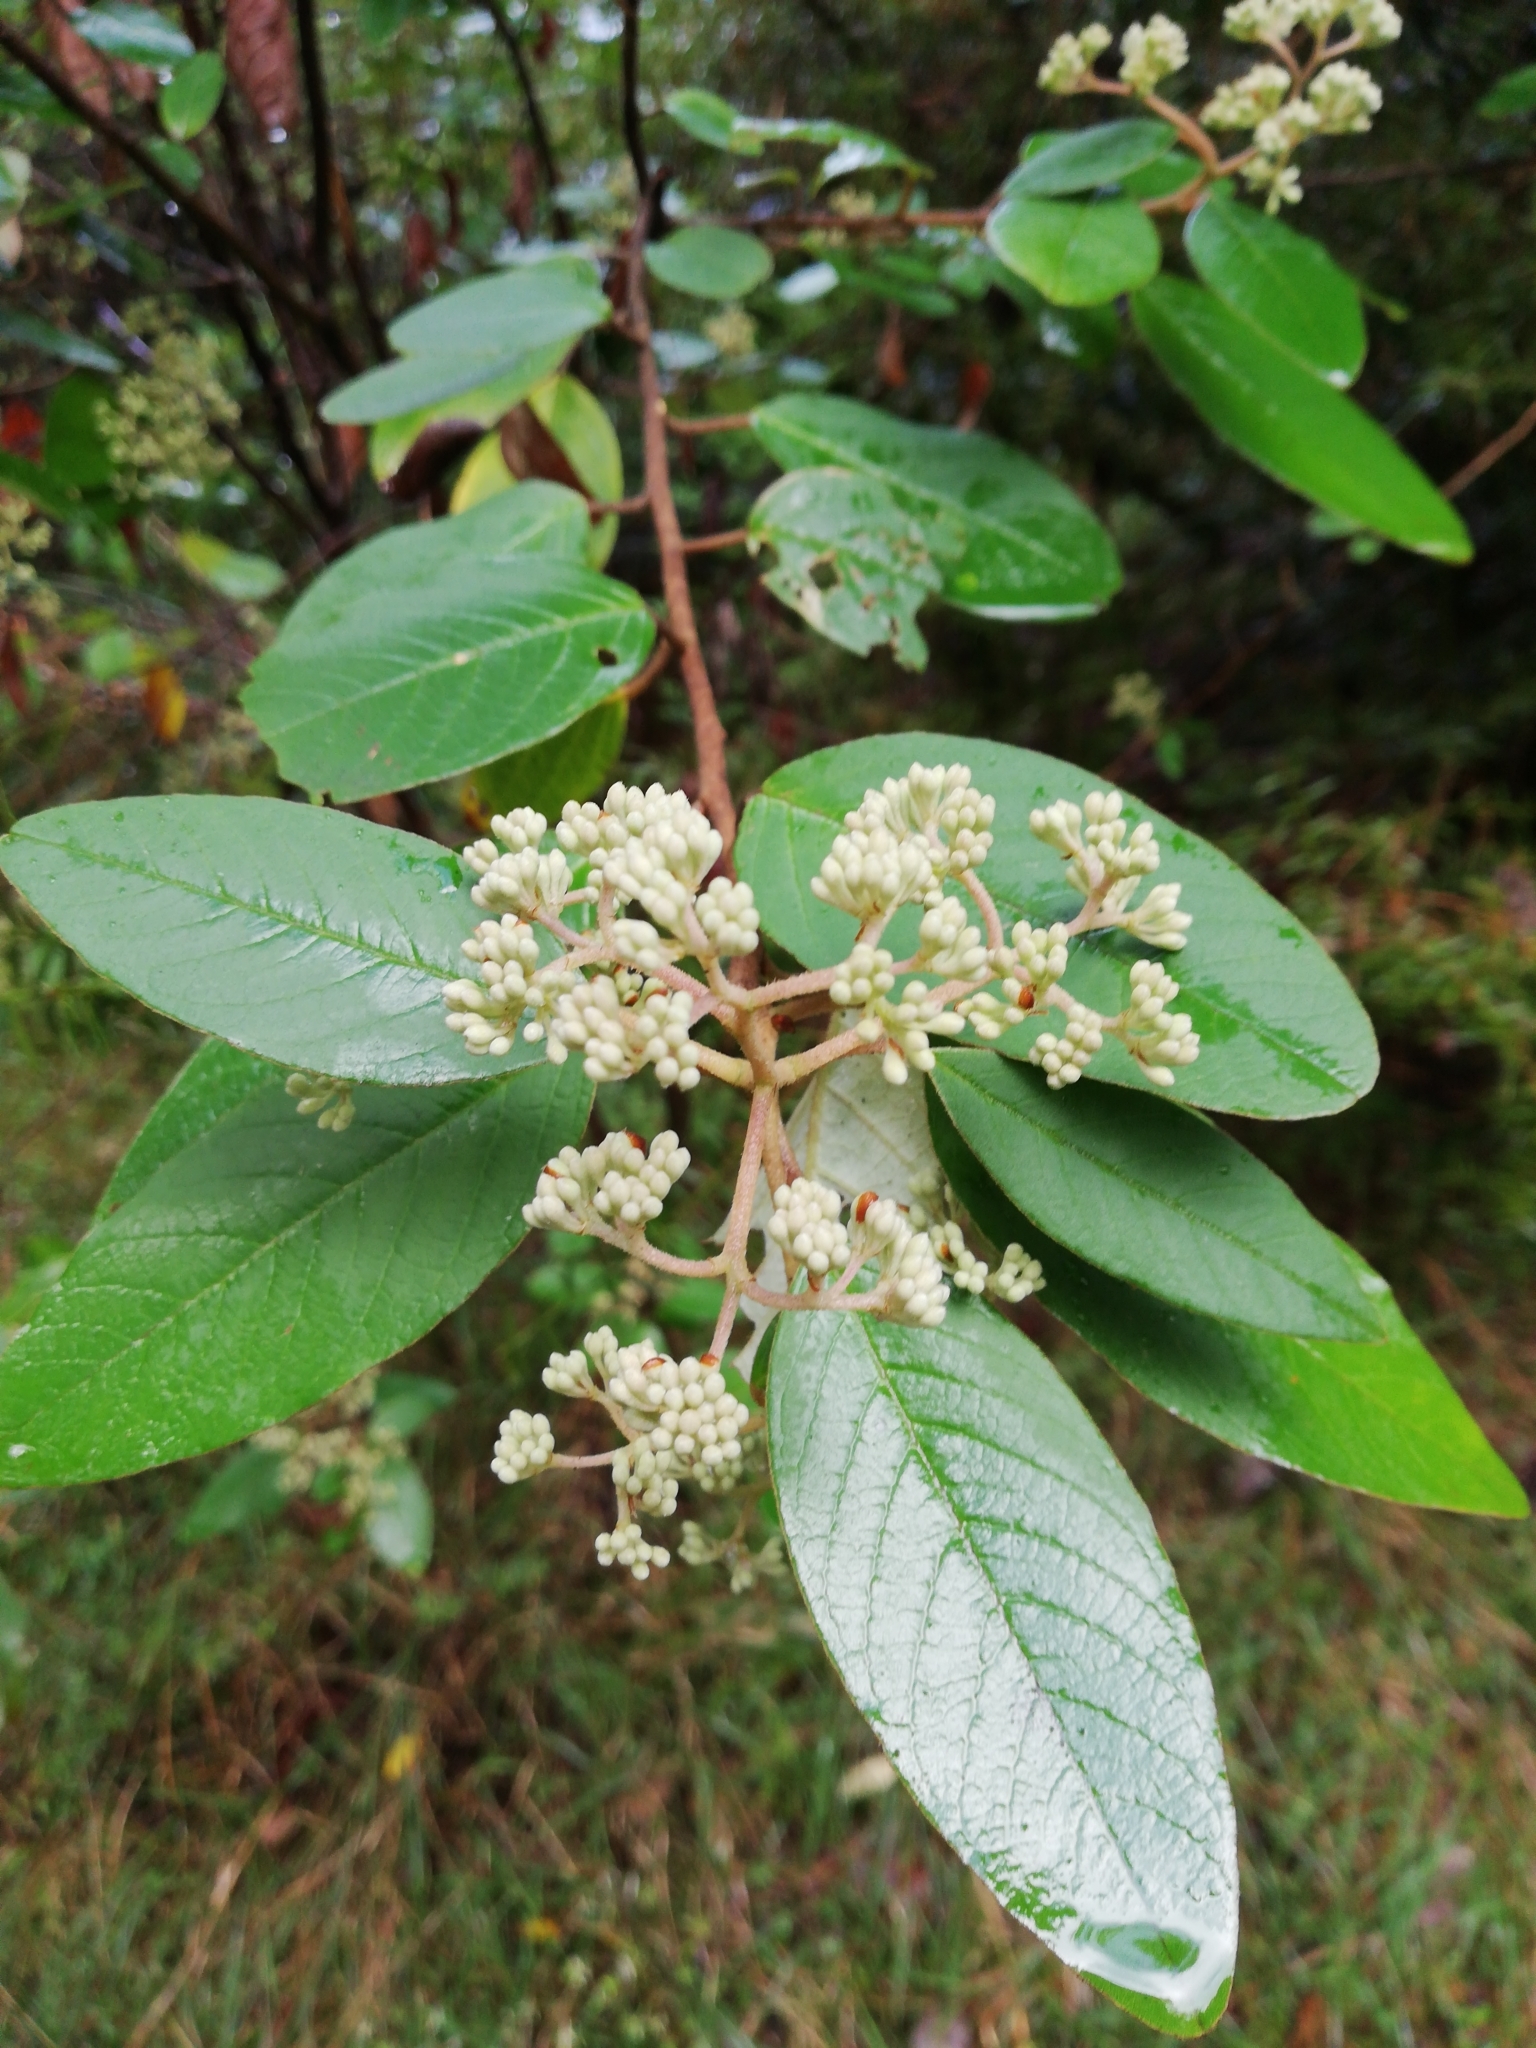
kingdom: Plantae
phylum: Tracheophyta
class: Magnoliopsida
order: Rosales
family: Rhamnaceae
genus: Pomaderris
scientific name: Pomaderris kumeraho
